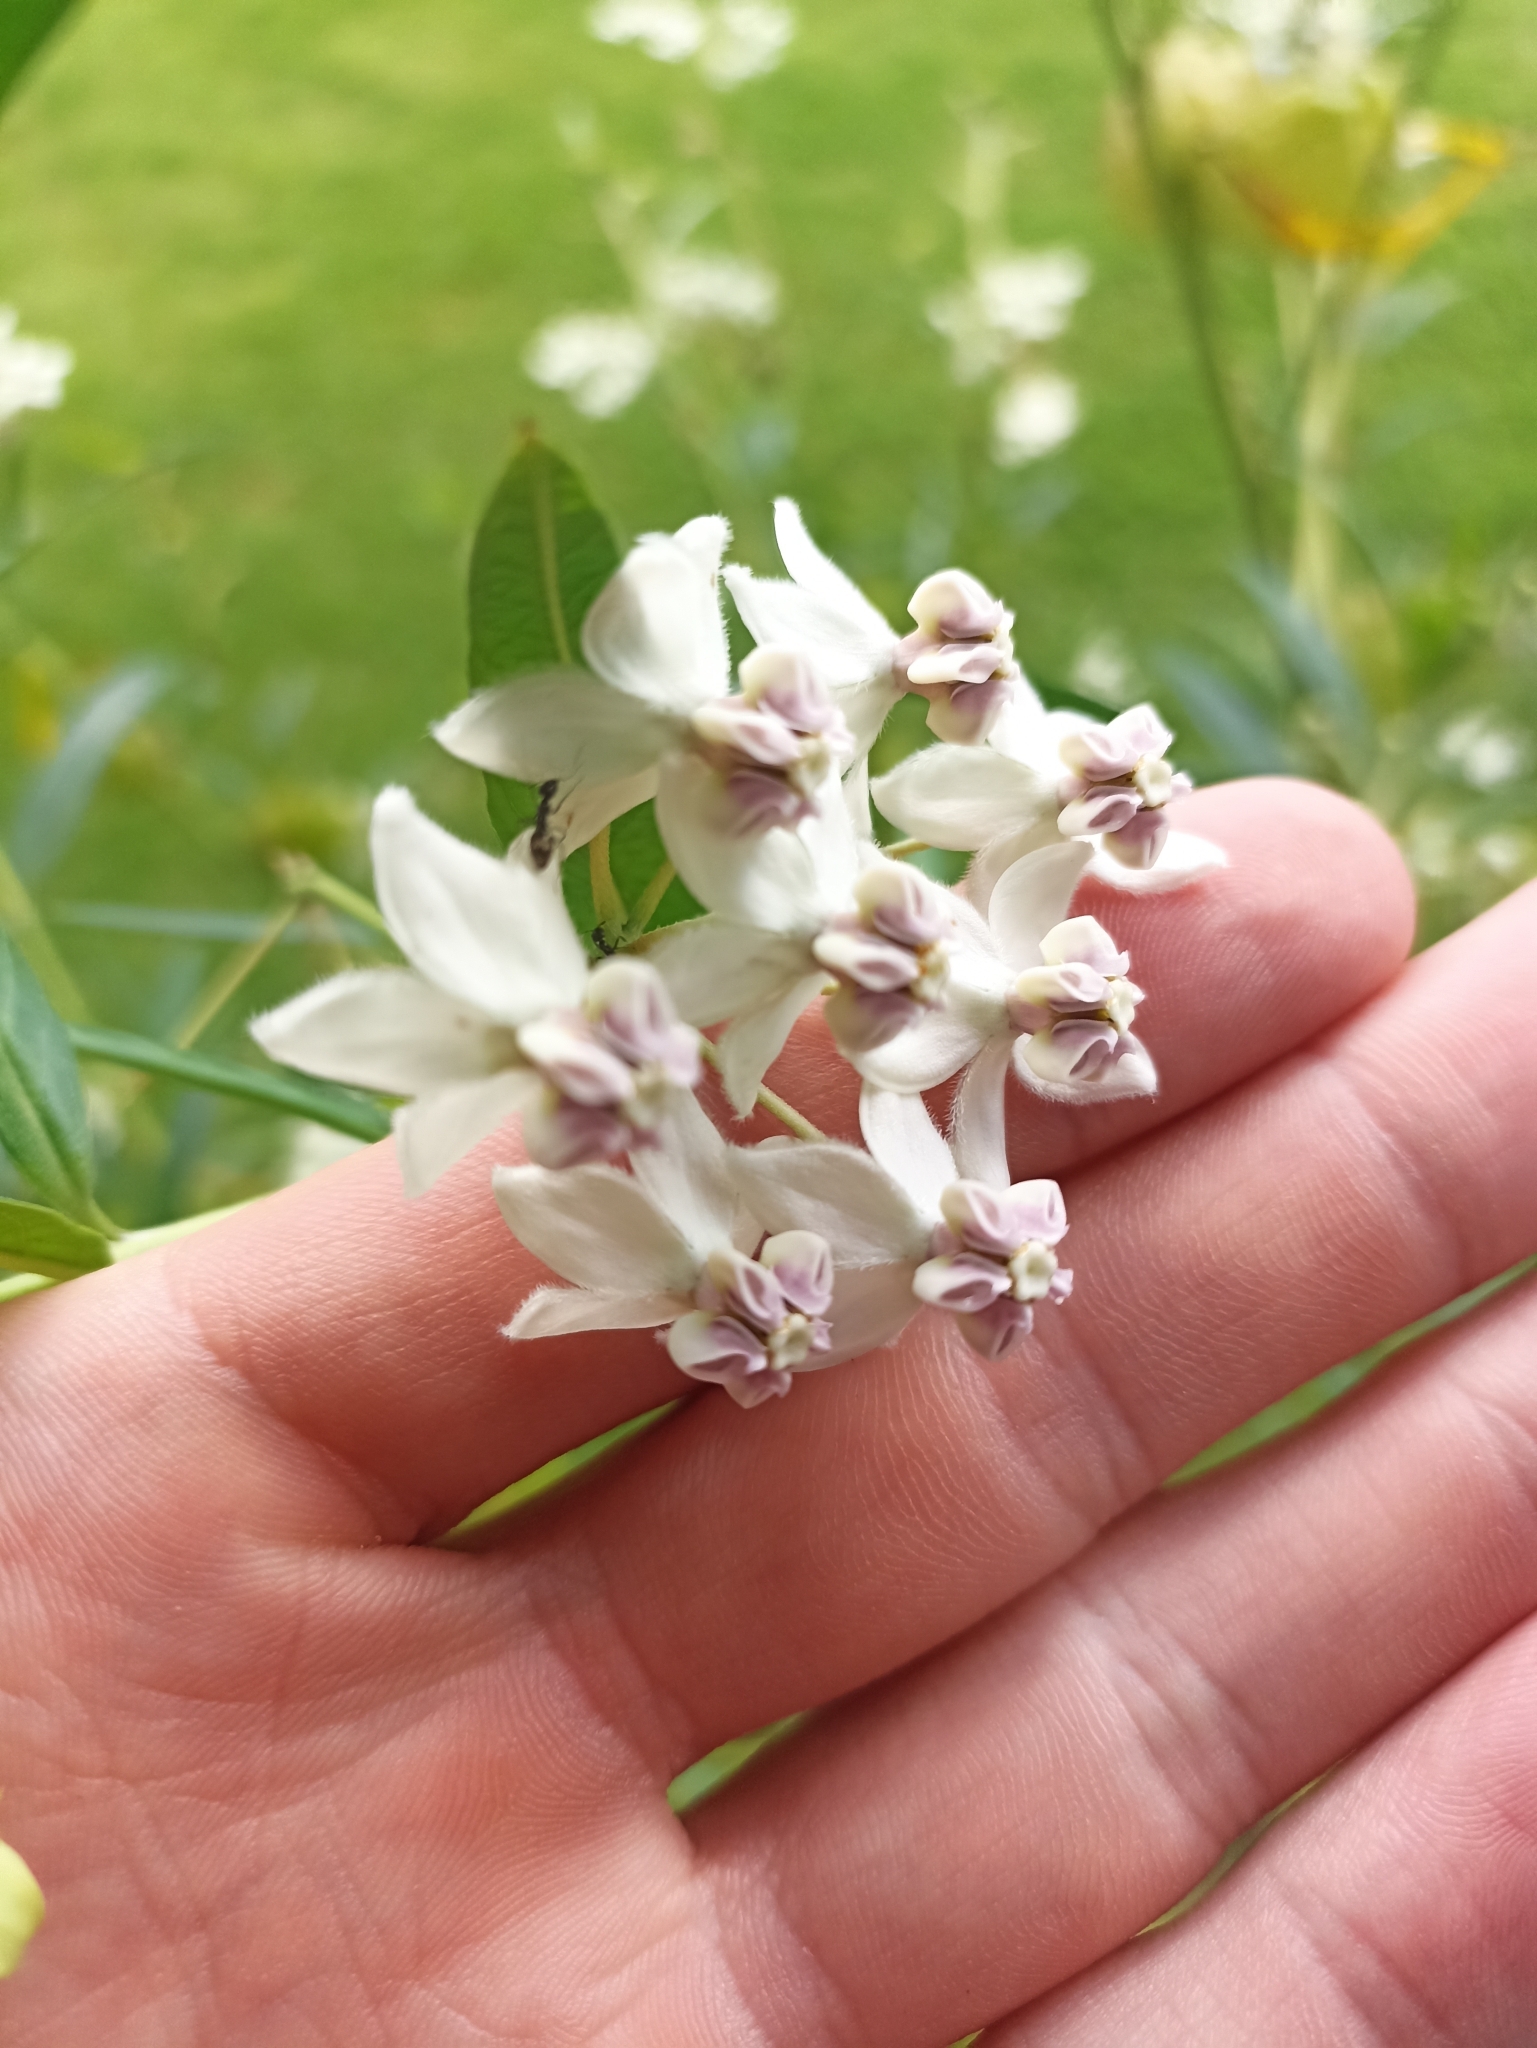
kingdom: Plantae
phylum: Tracheophyta
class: Magnoliopsida
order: Gentianales
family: Apocynaceae
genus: Gomphocarpus
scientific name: Gomphocarpus physocarpus
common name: Balloon cotton bush
